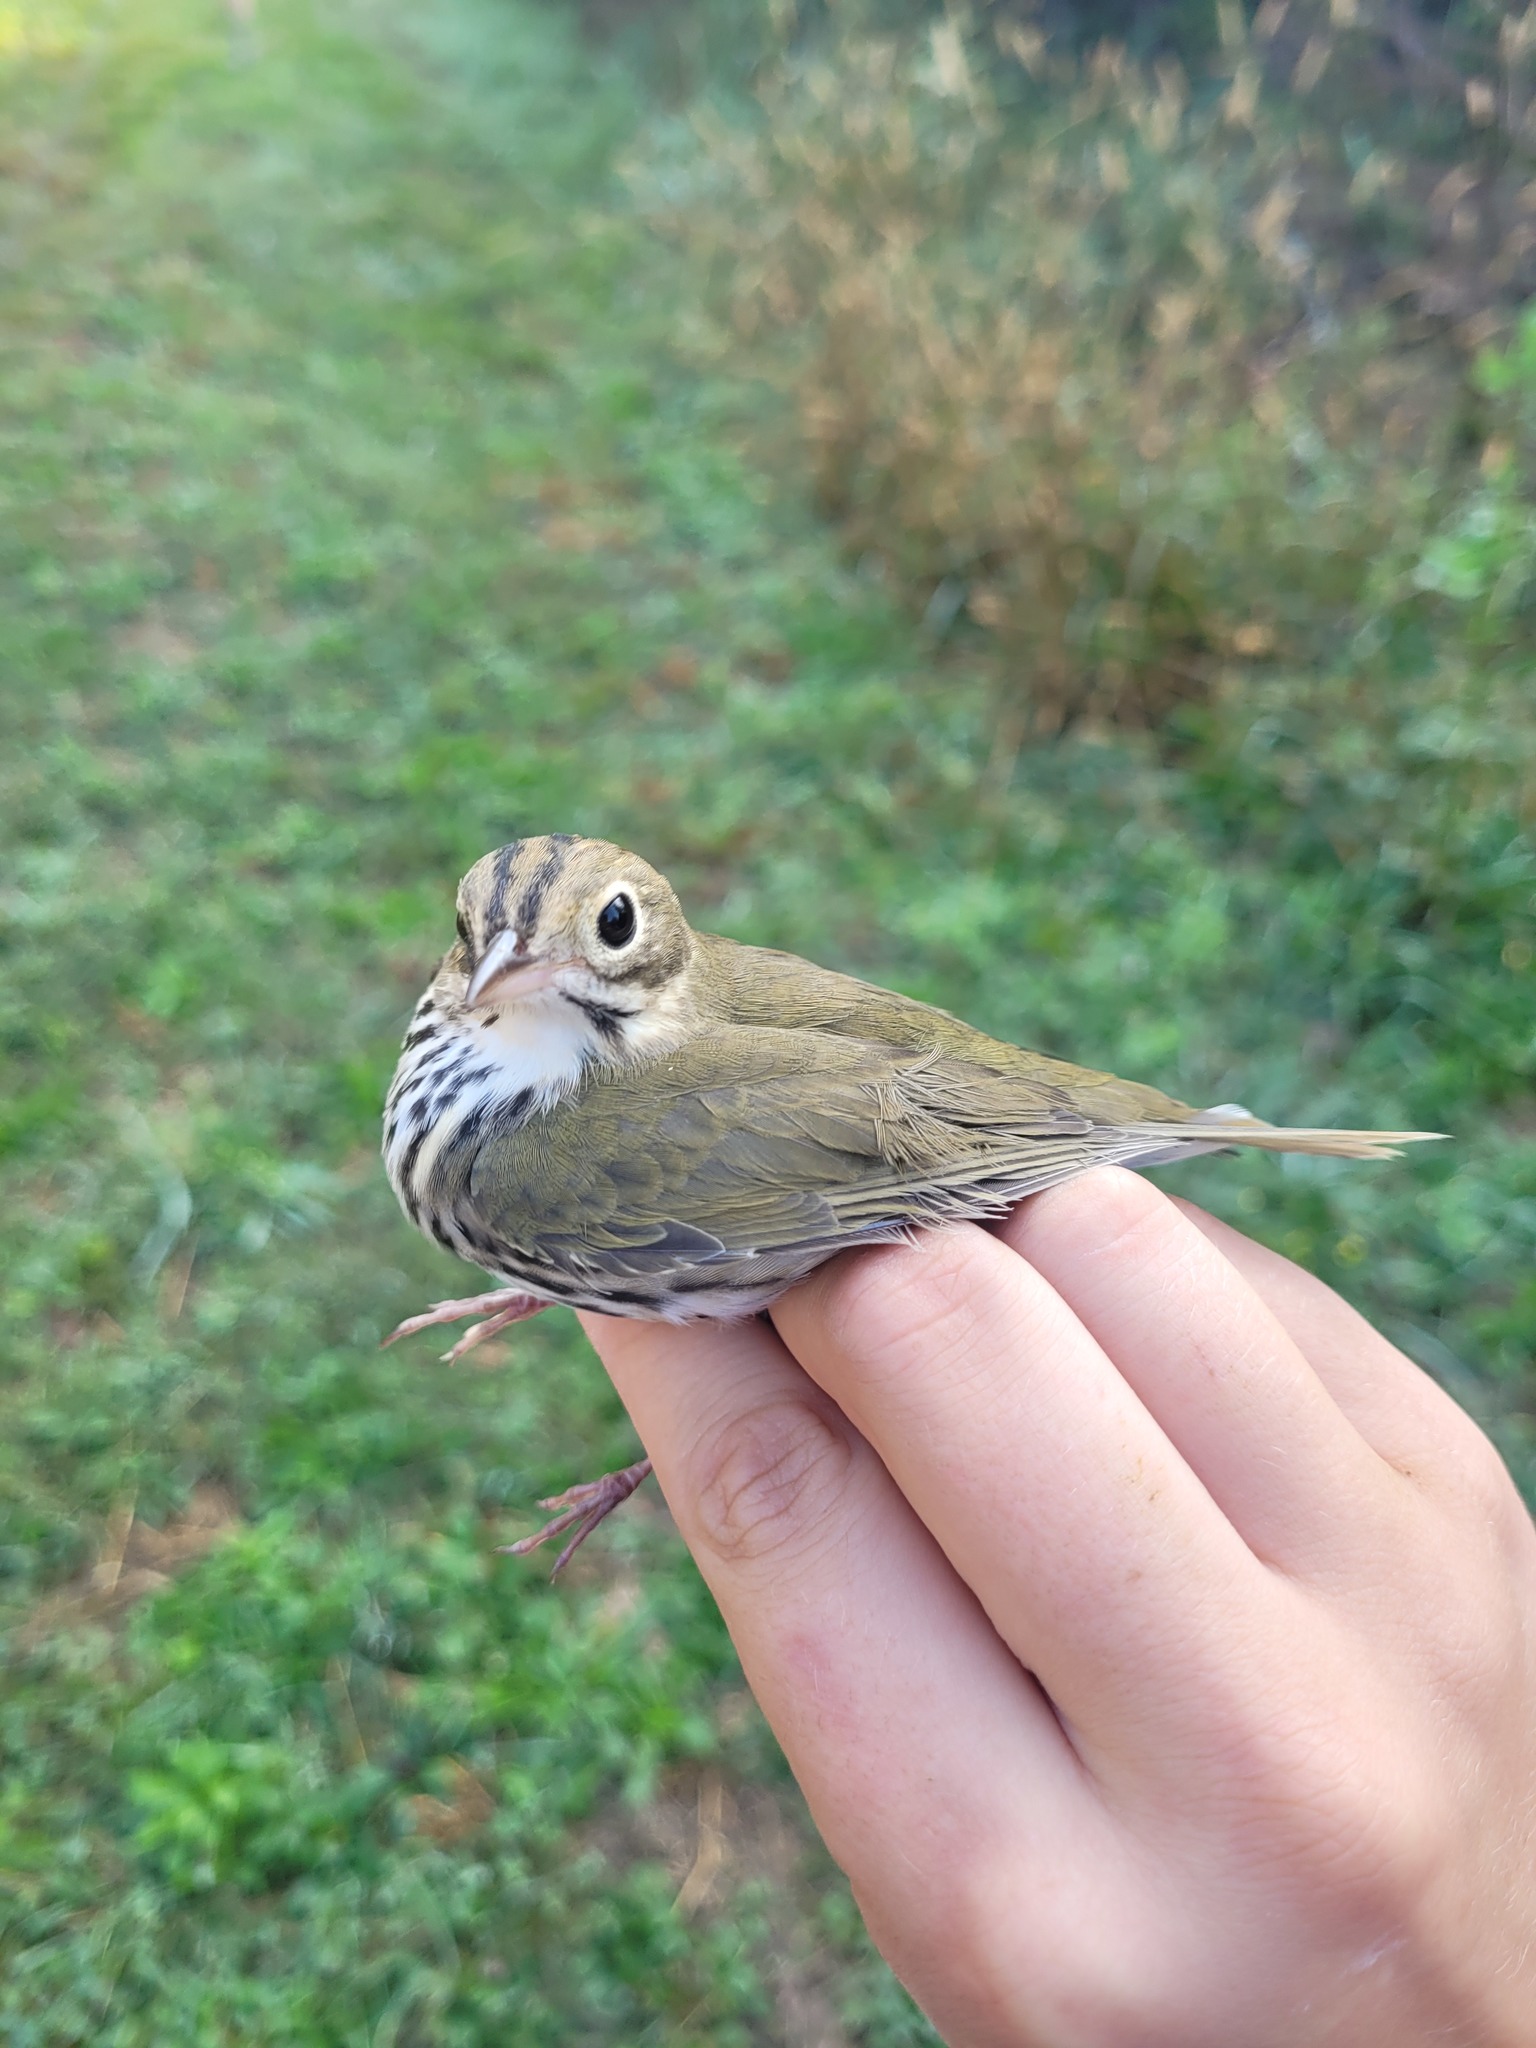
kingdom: Animalia
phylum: Chordata
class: Aves
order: Passeriformes
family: Parulidae
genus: Seiurus
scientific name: Seiurus aurocapilla
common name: Ovenbird
